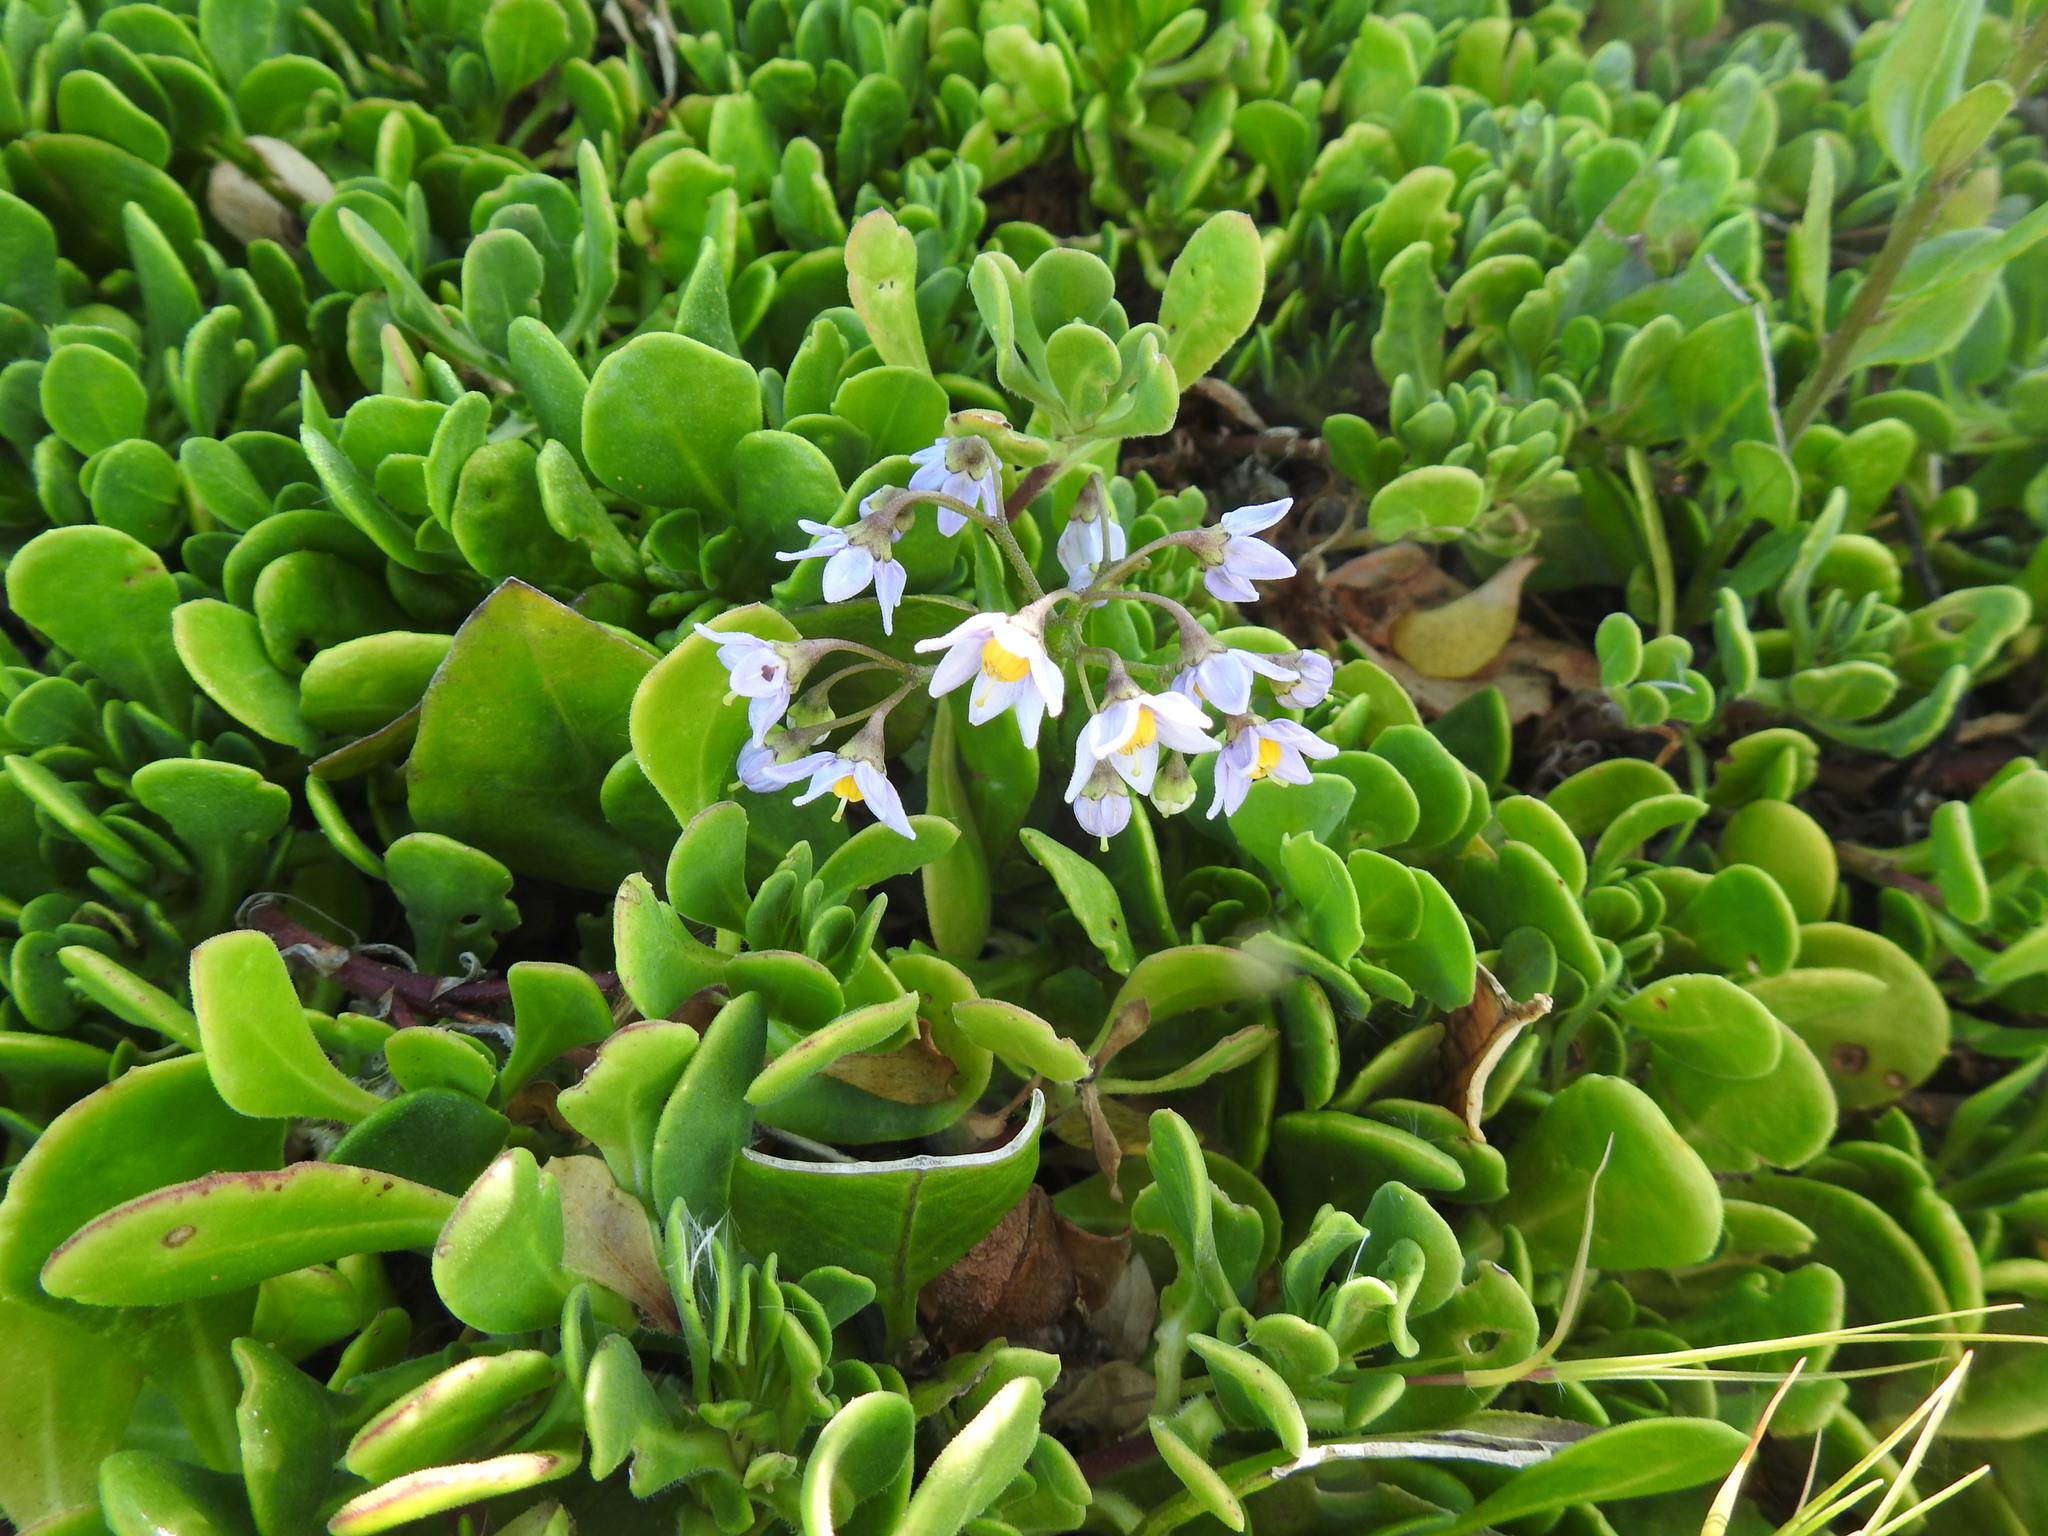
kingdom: Plantae
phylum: Tracheophyta
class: Magnoliopsida
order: Solanales
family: Solanaceae
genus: Solanum
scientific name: Solanum africanum
